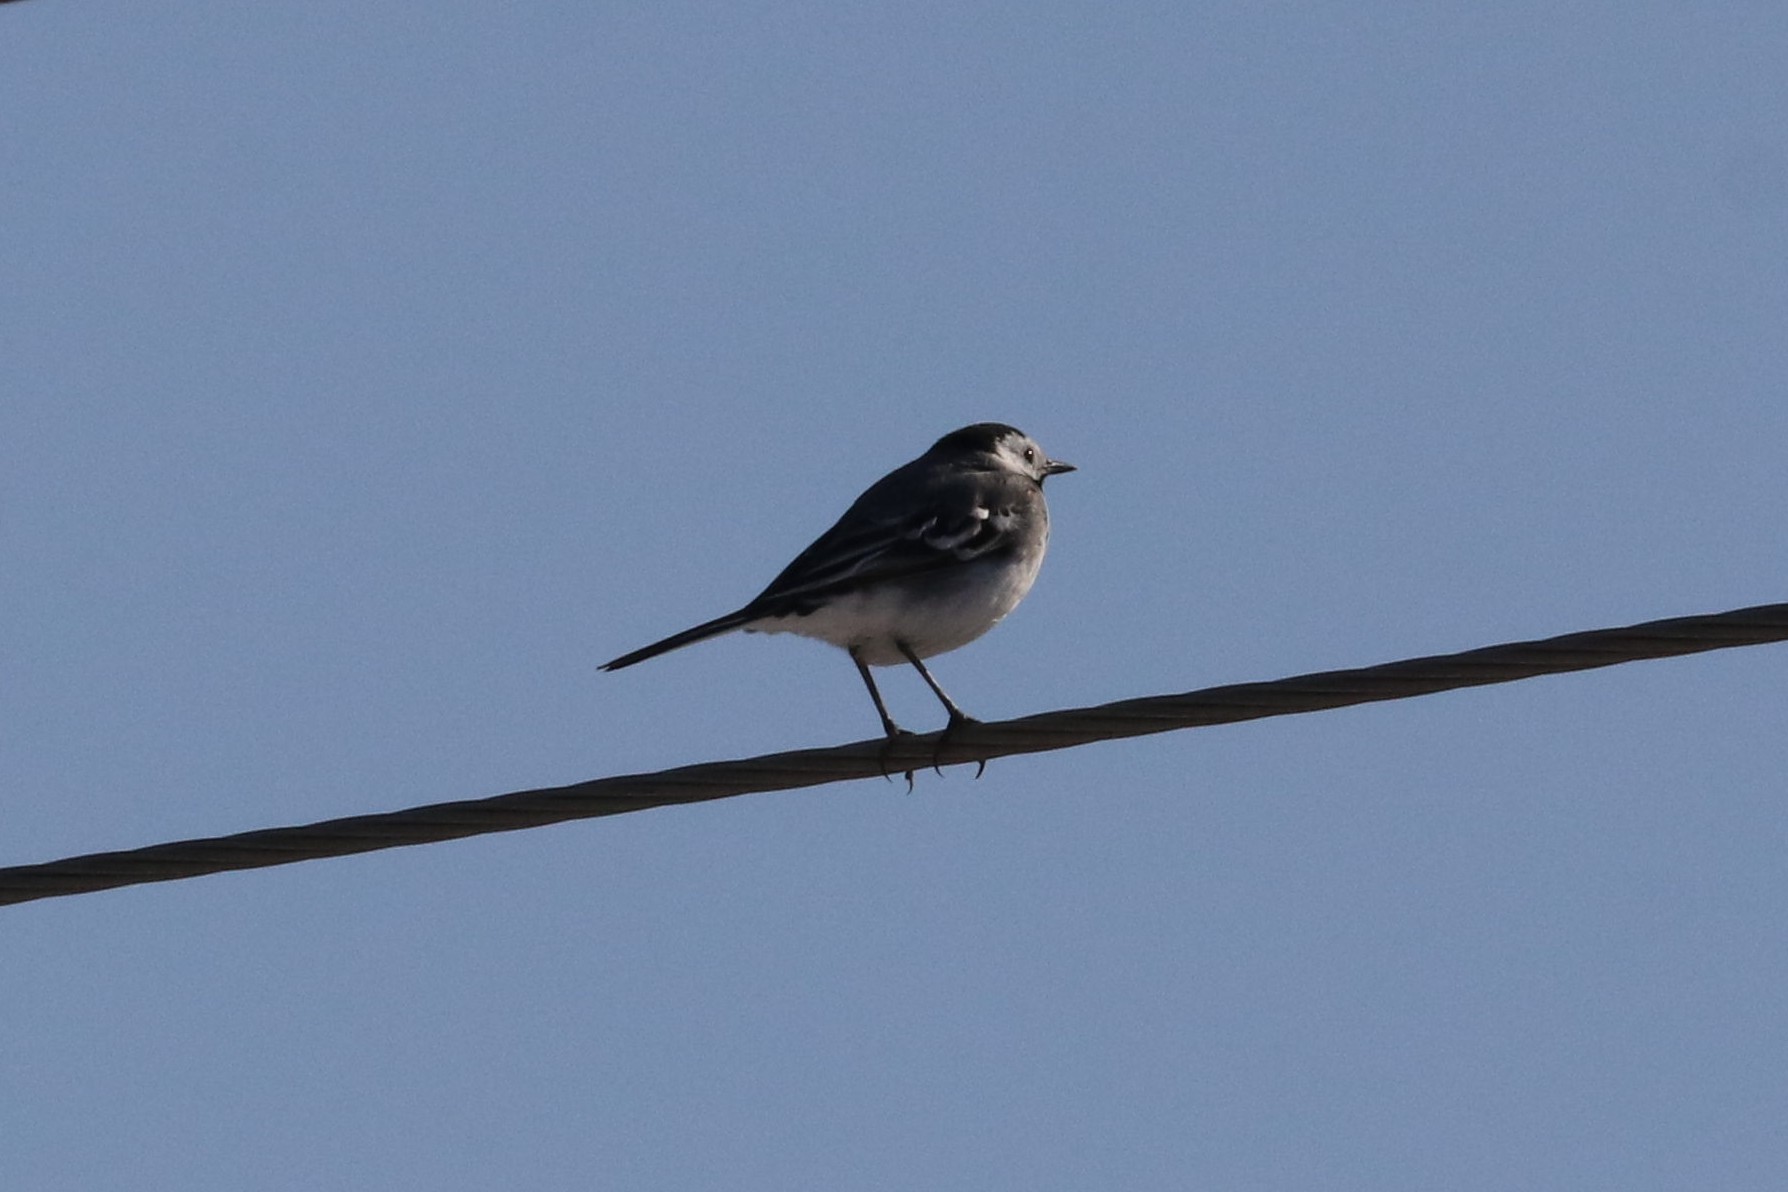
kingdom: Animalia
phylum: Chordata
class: Aves
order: Passeriformes
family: Motacillidae
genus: Motacilla
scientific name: Motacilla alba
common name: White wagtail
